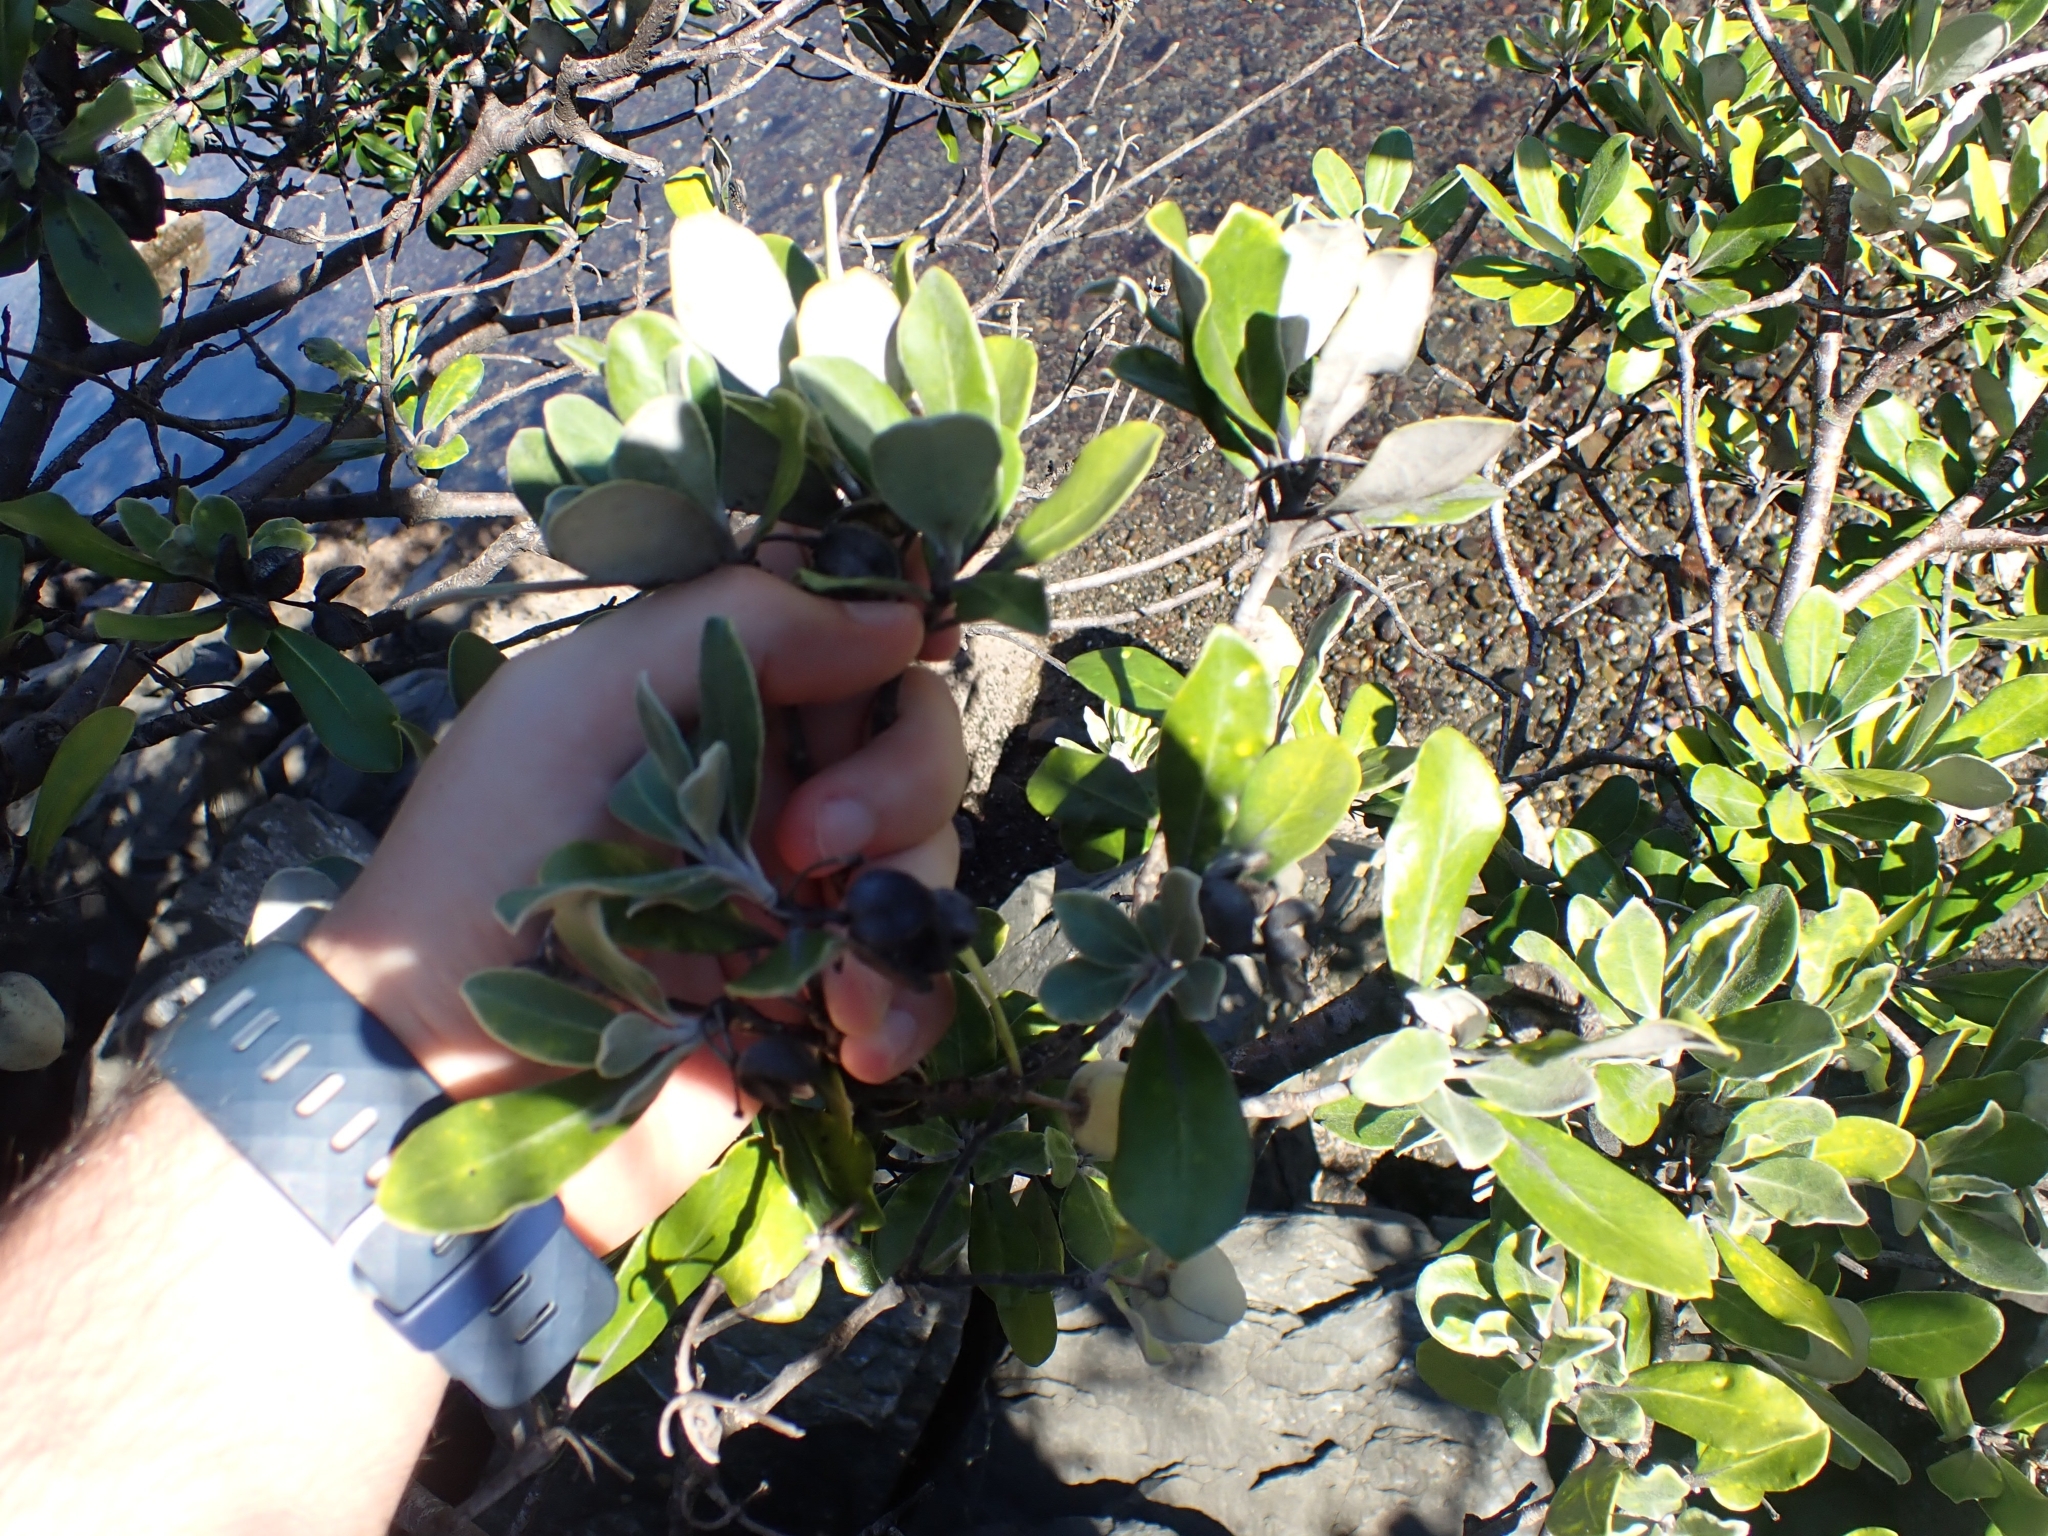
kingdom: Plantae
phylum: Tracheophyta
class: Magnoliopsida
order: Apiales
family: Pittosporaceae
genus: Pittosporum
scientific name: Pittosporum crassifolium
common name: Karo
